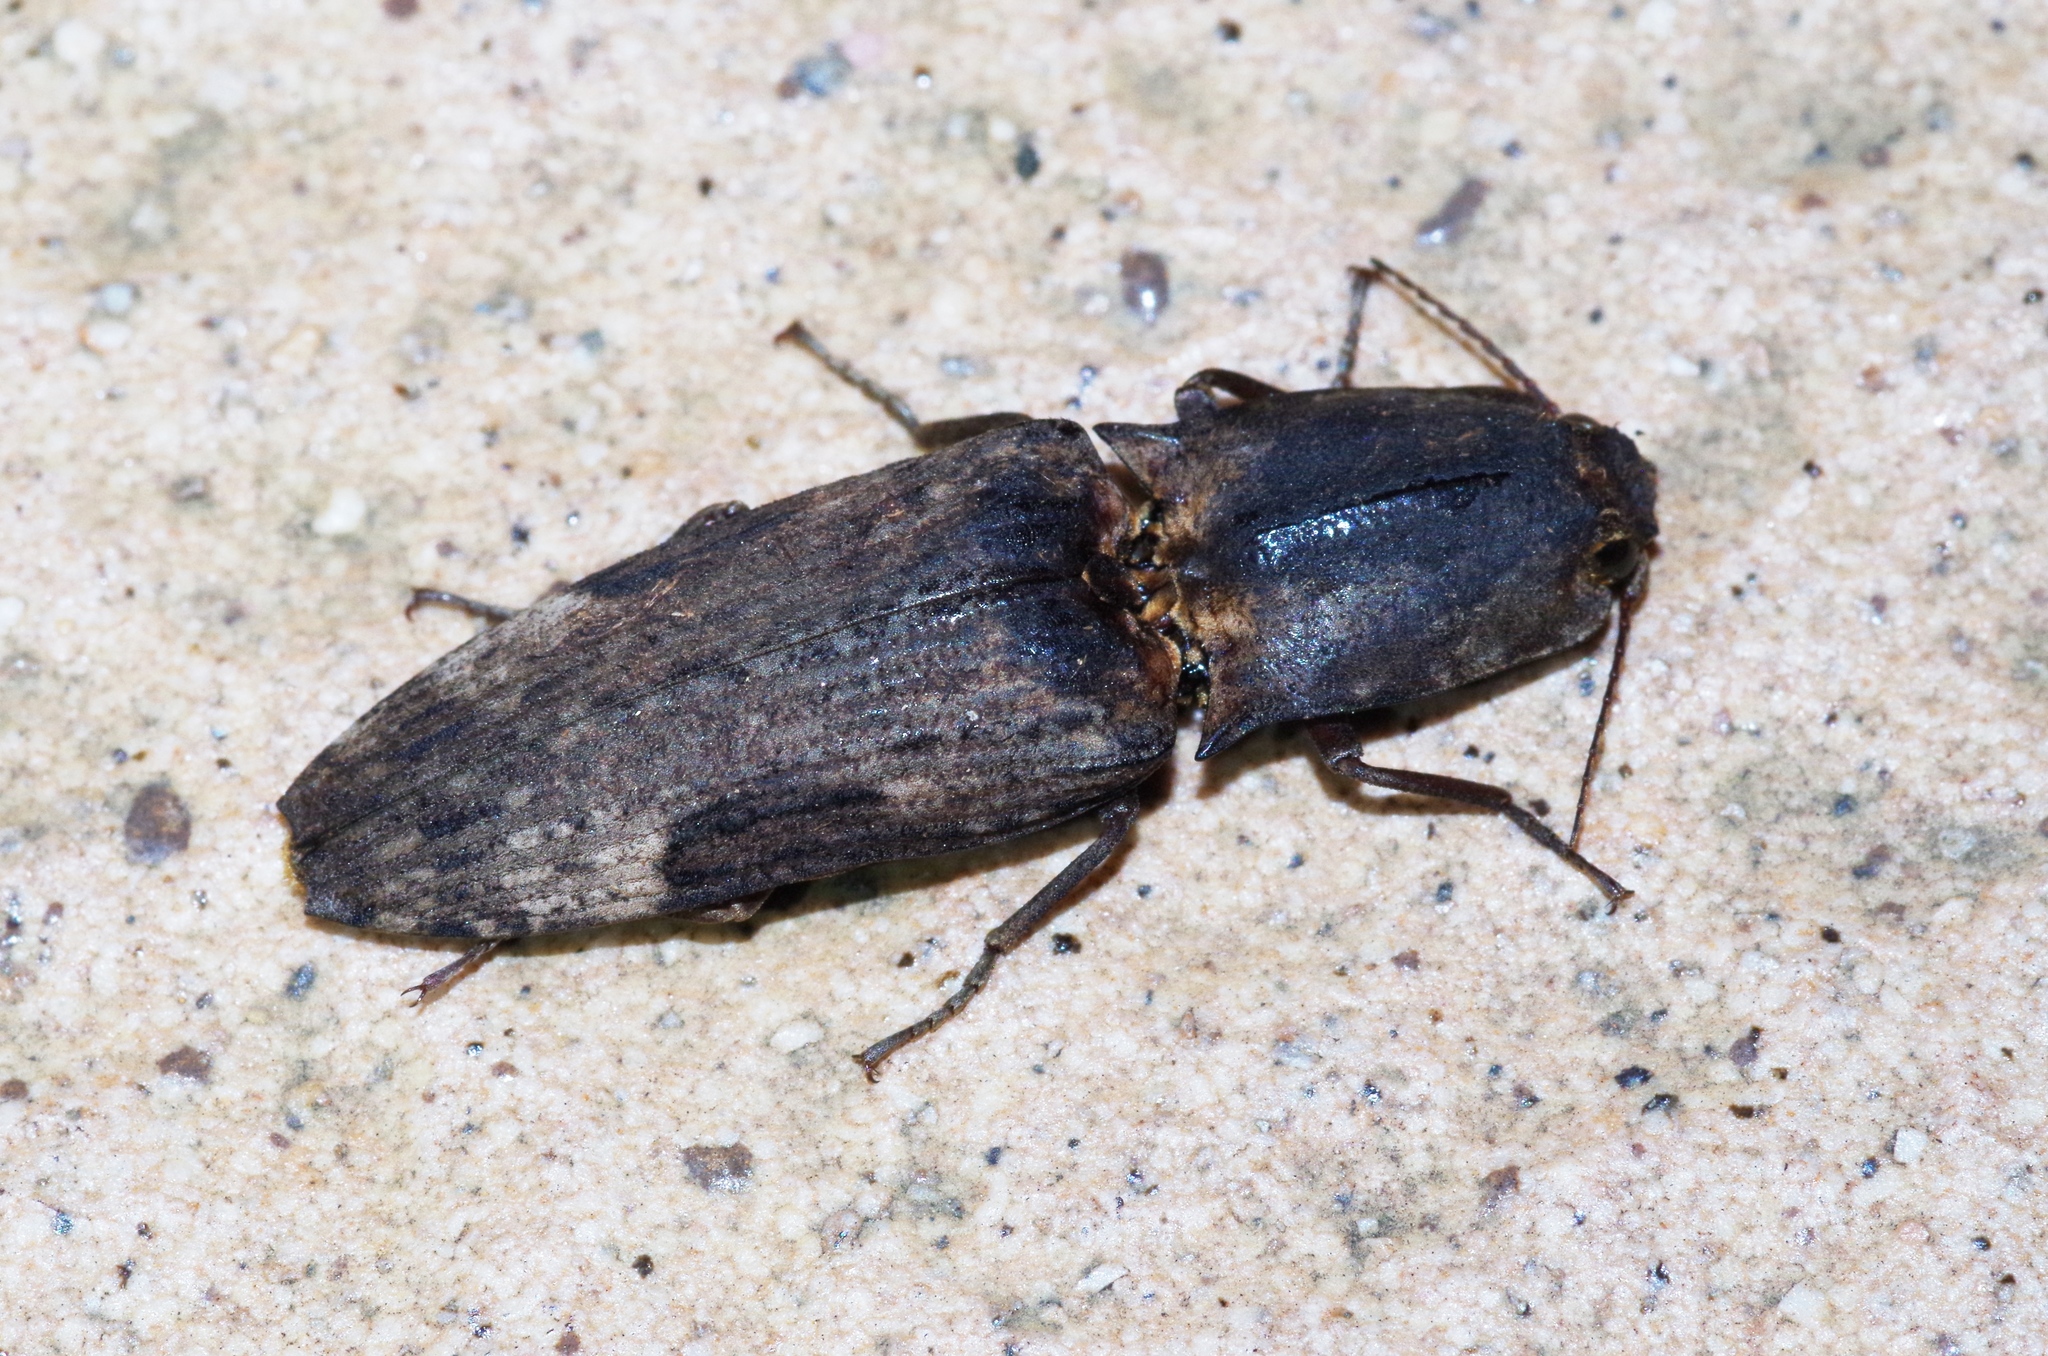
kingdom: Animalia
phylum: Arthropoda
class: Insecta
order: Coleoptera
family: Elateridae
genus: Cryptalaus
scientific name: Cryptalaus larvatus
